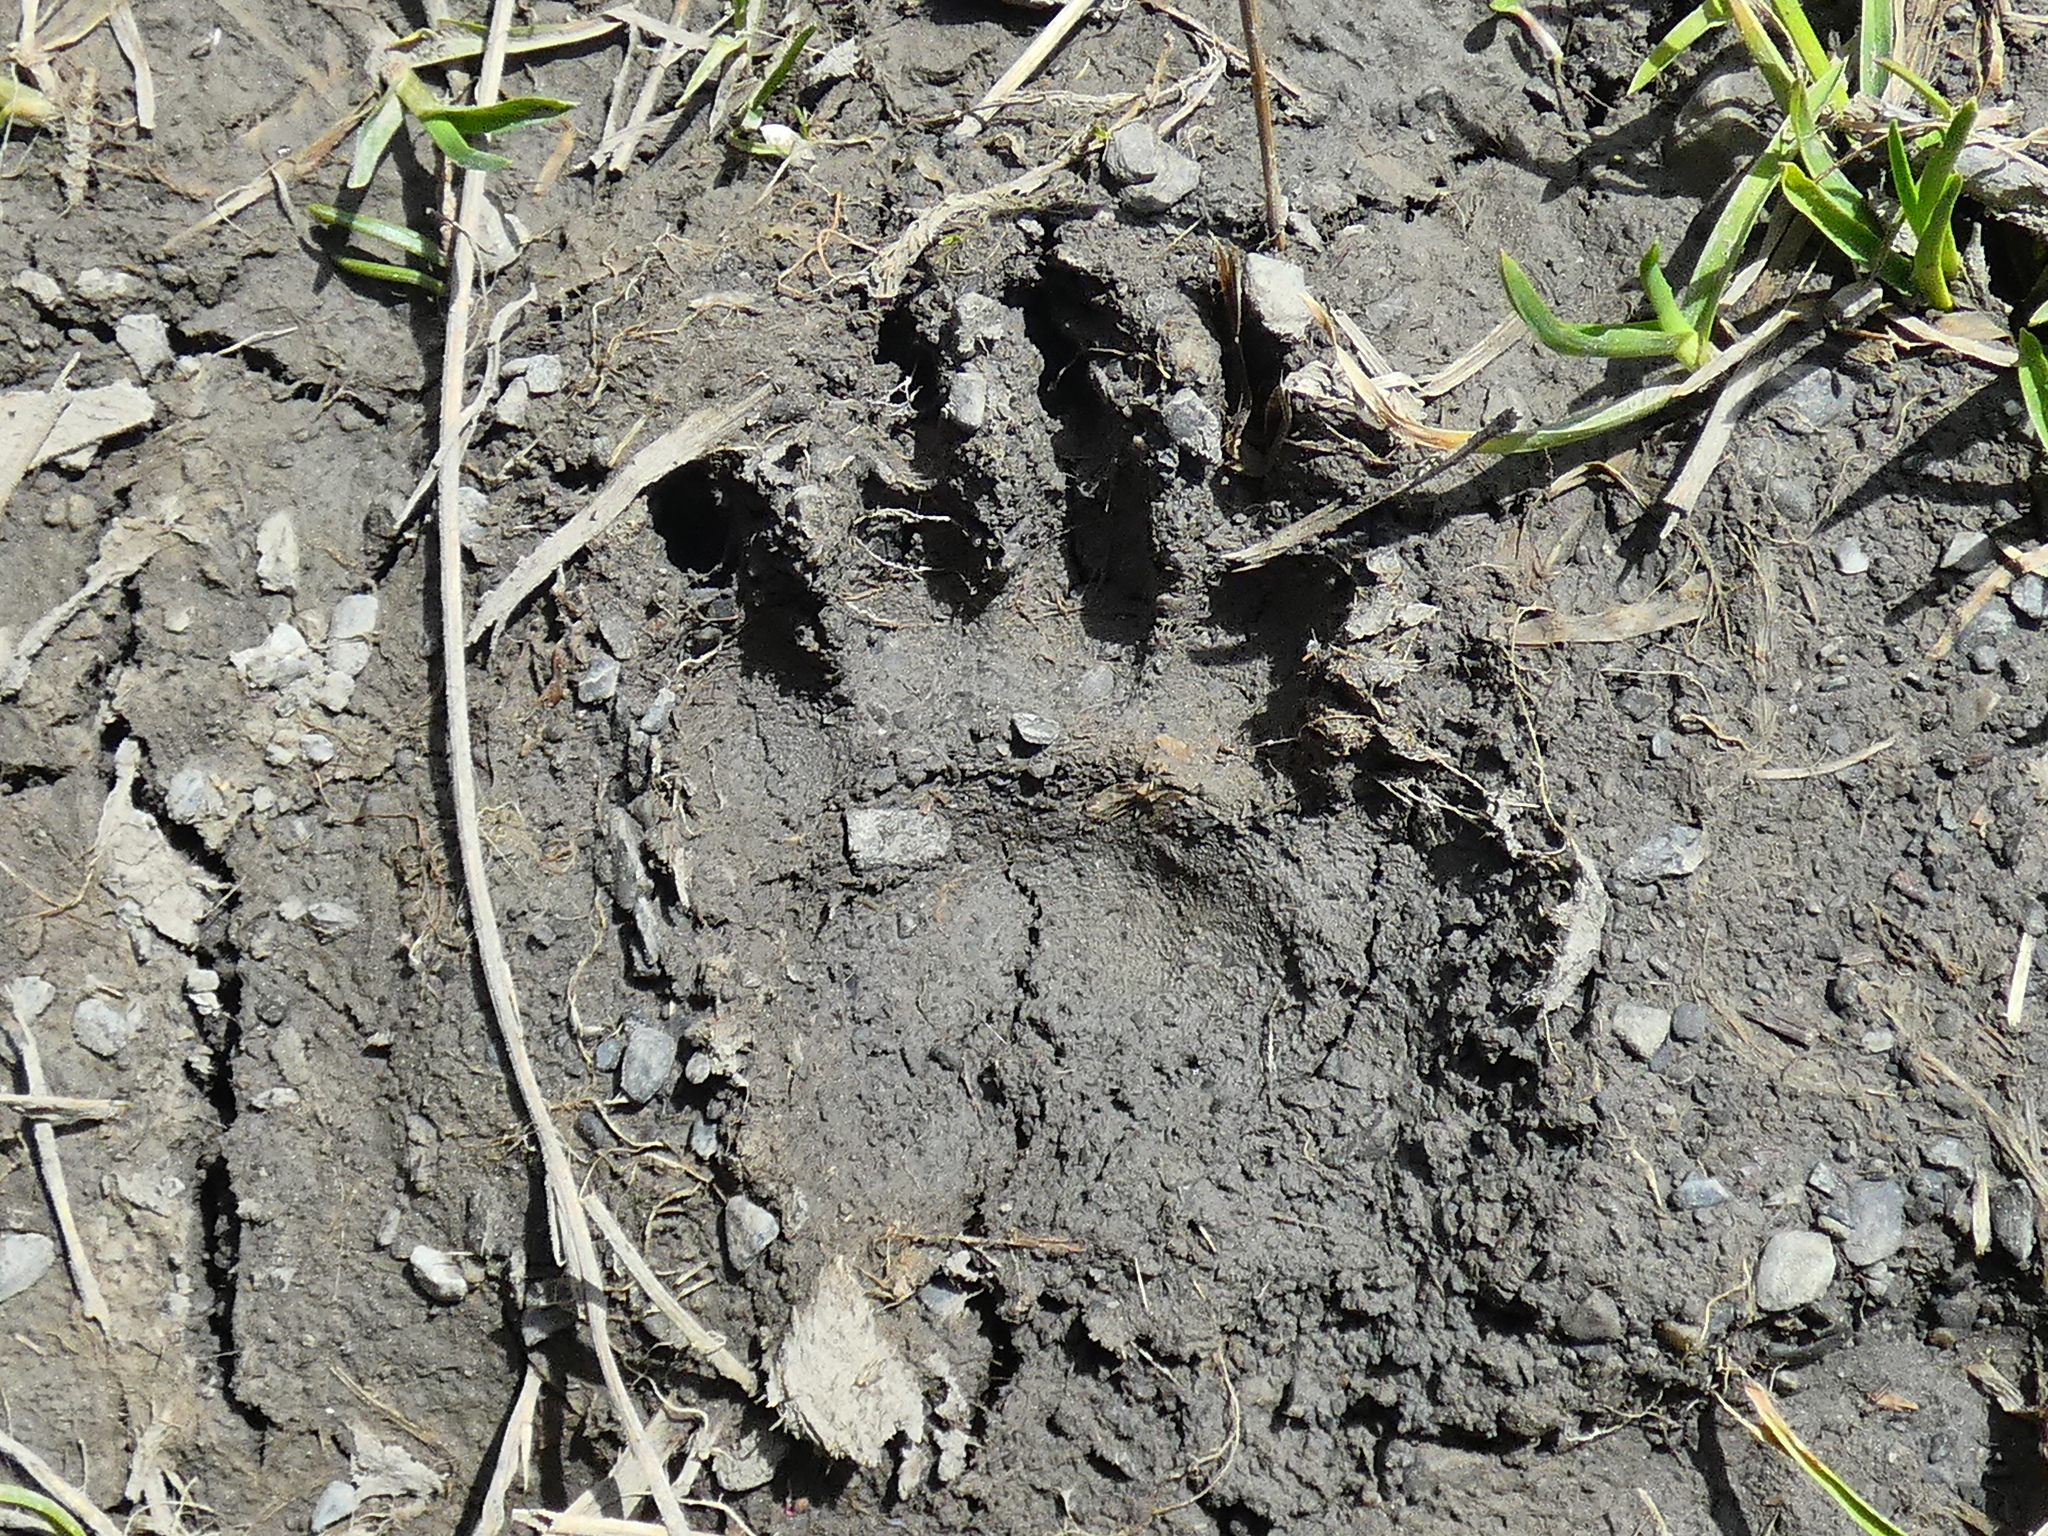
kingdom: Animalia
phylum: Chordata
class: Mammalia
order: Carnivora
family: Mustelidae
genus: Meles
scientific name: Meles meles
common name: Eurasian badger
